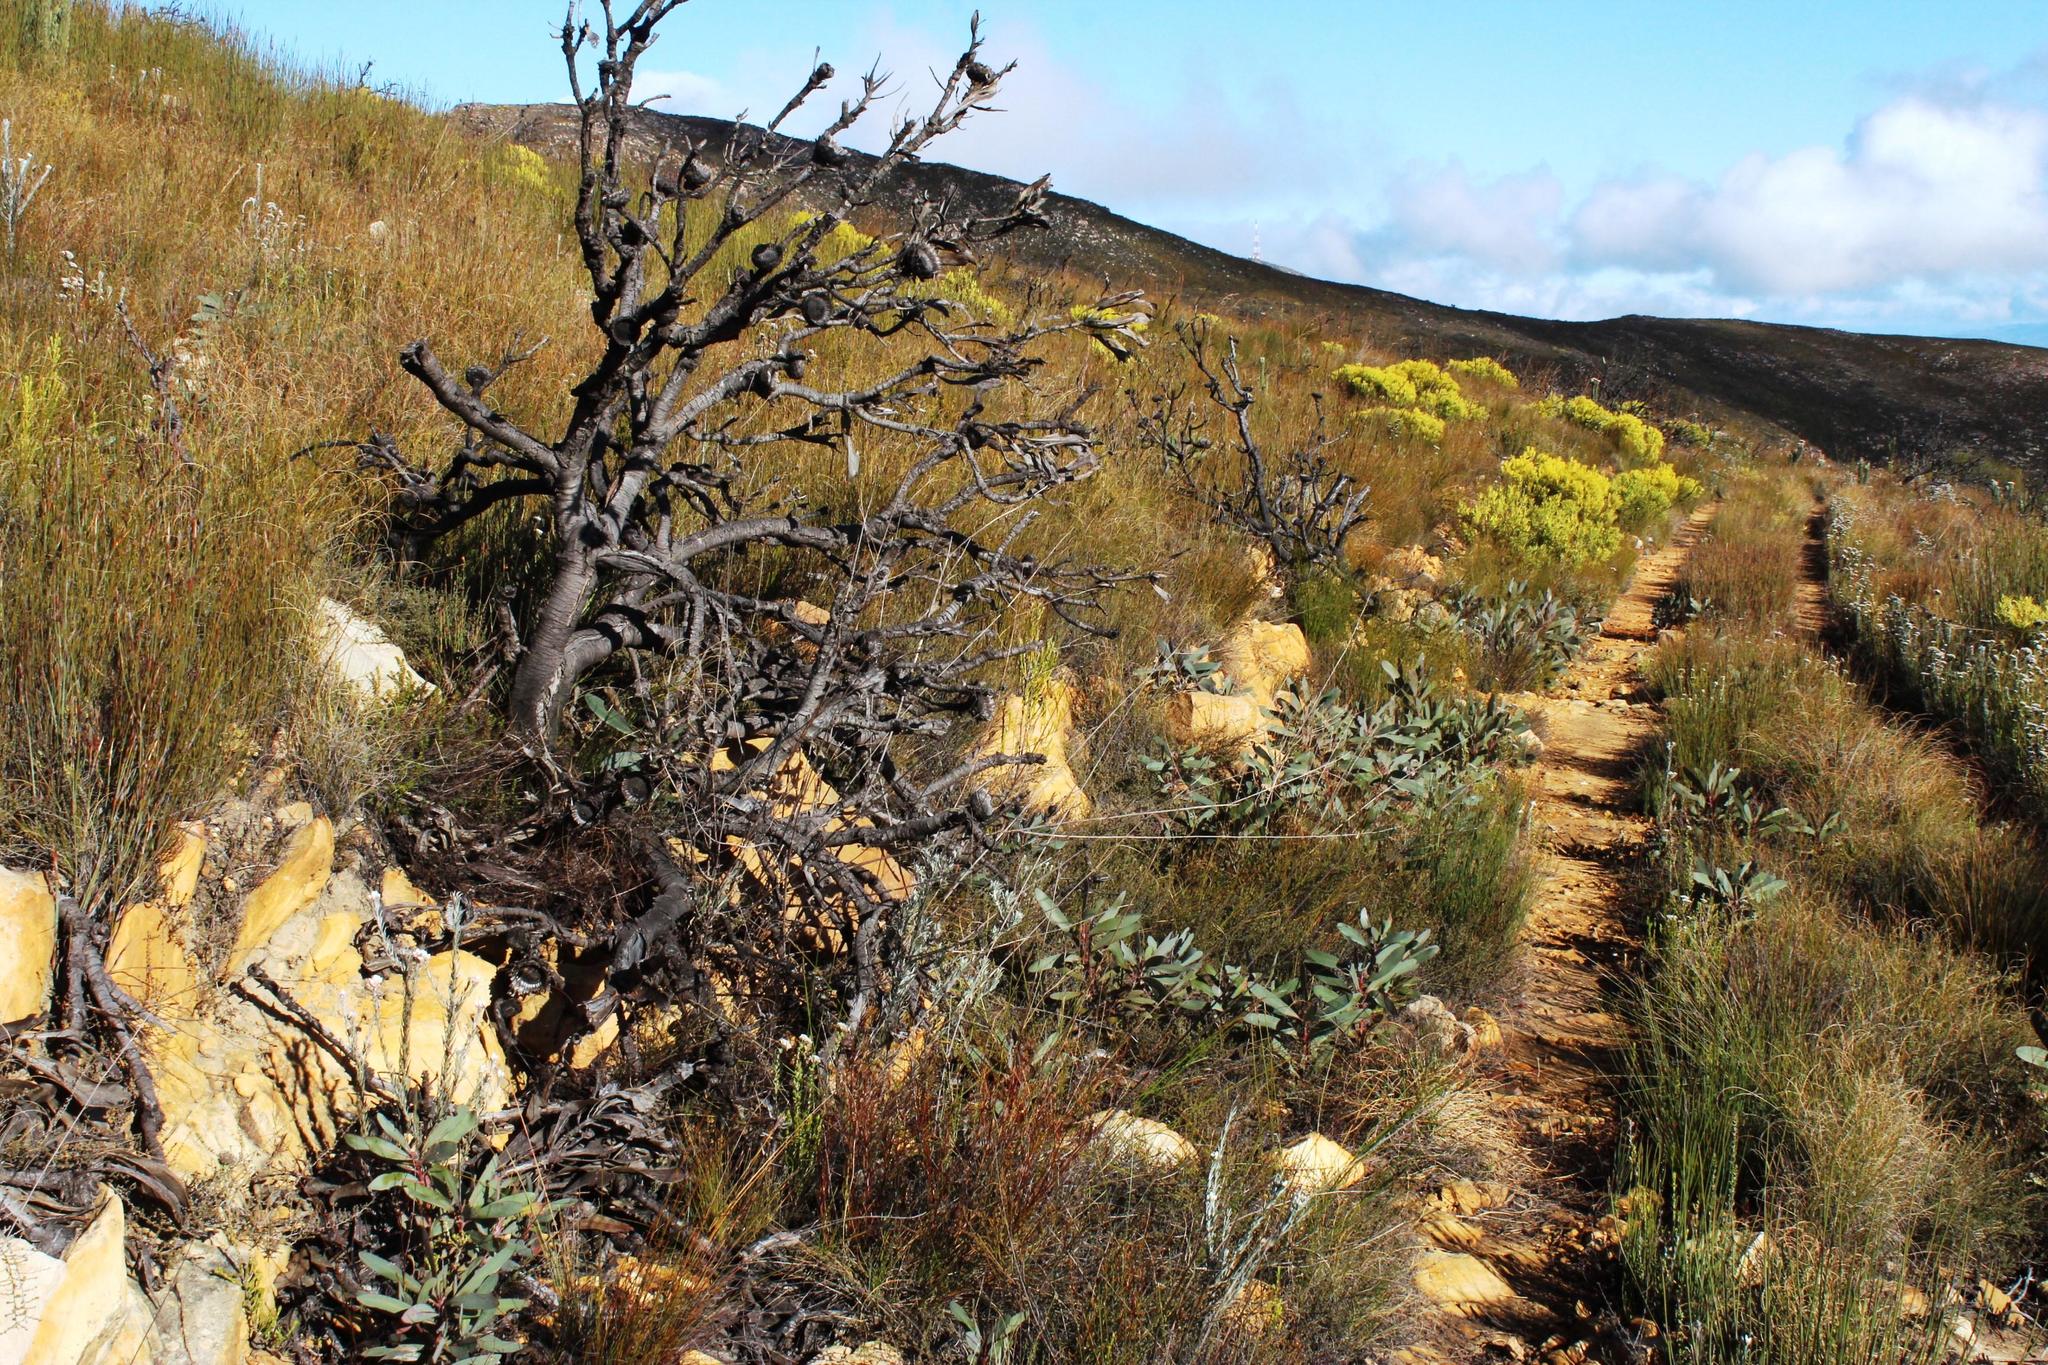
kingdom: Plantae
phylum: Tracheophyta
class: Magnoliopsida
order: Proteales
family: Proteaceae
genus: Protea
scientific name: Protea lorifolia
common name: Strap-leaved protea
